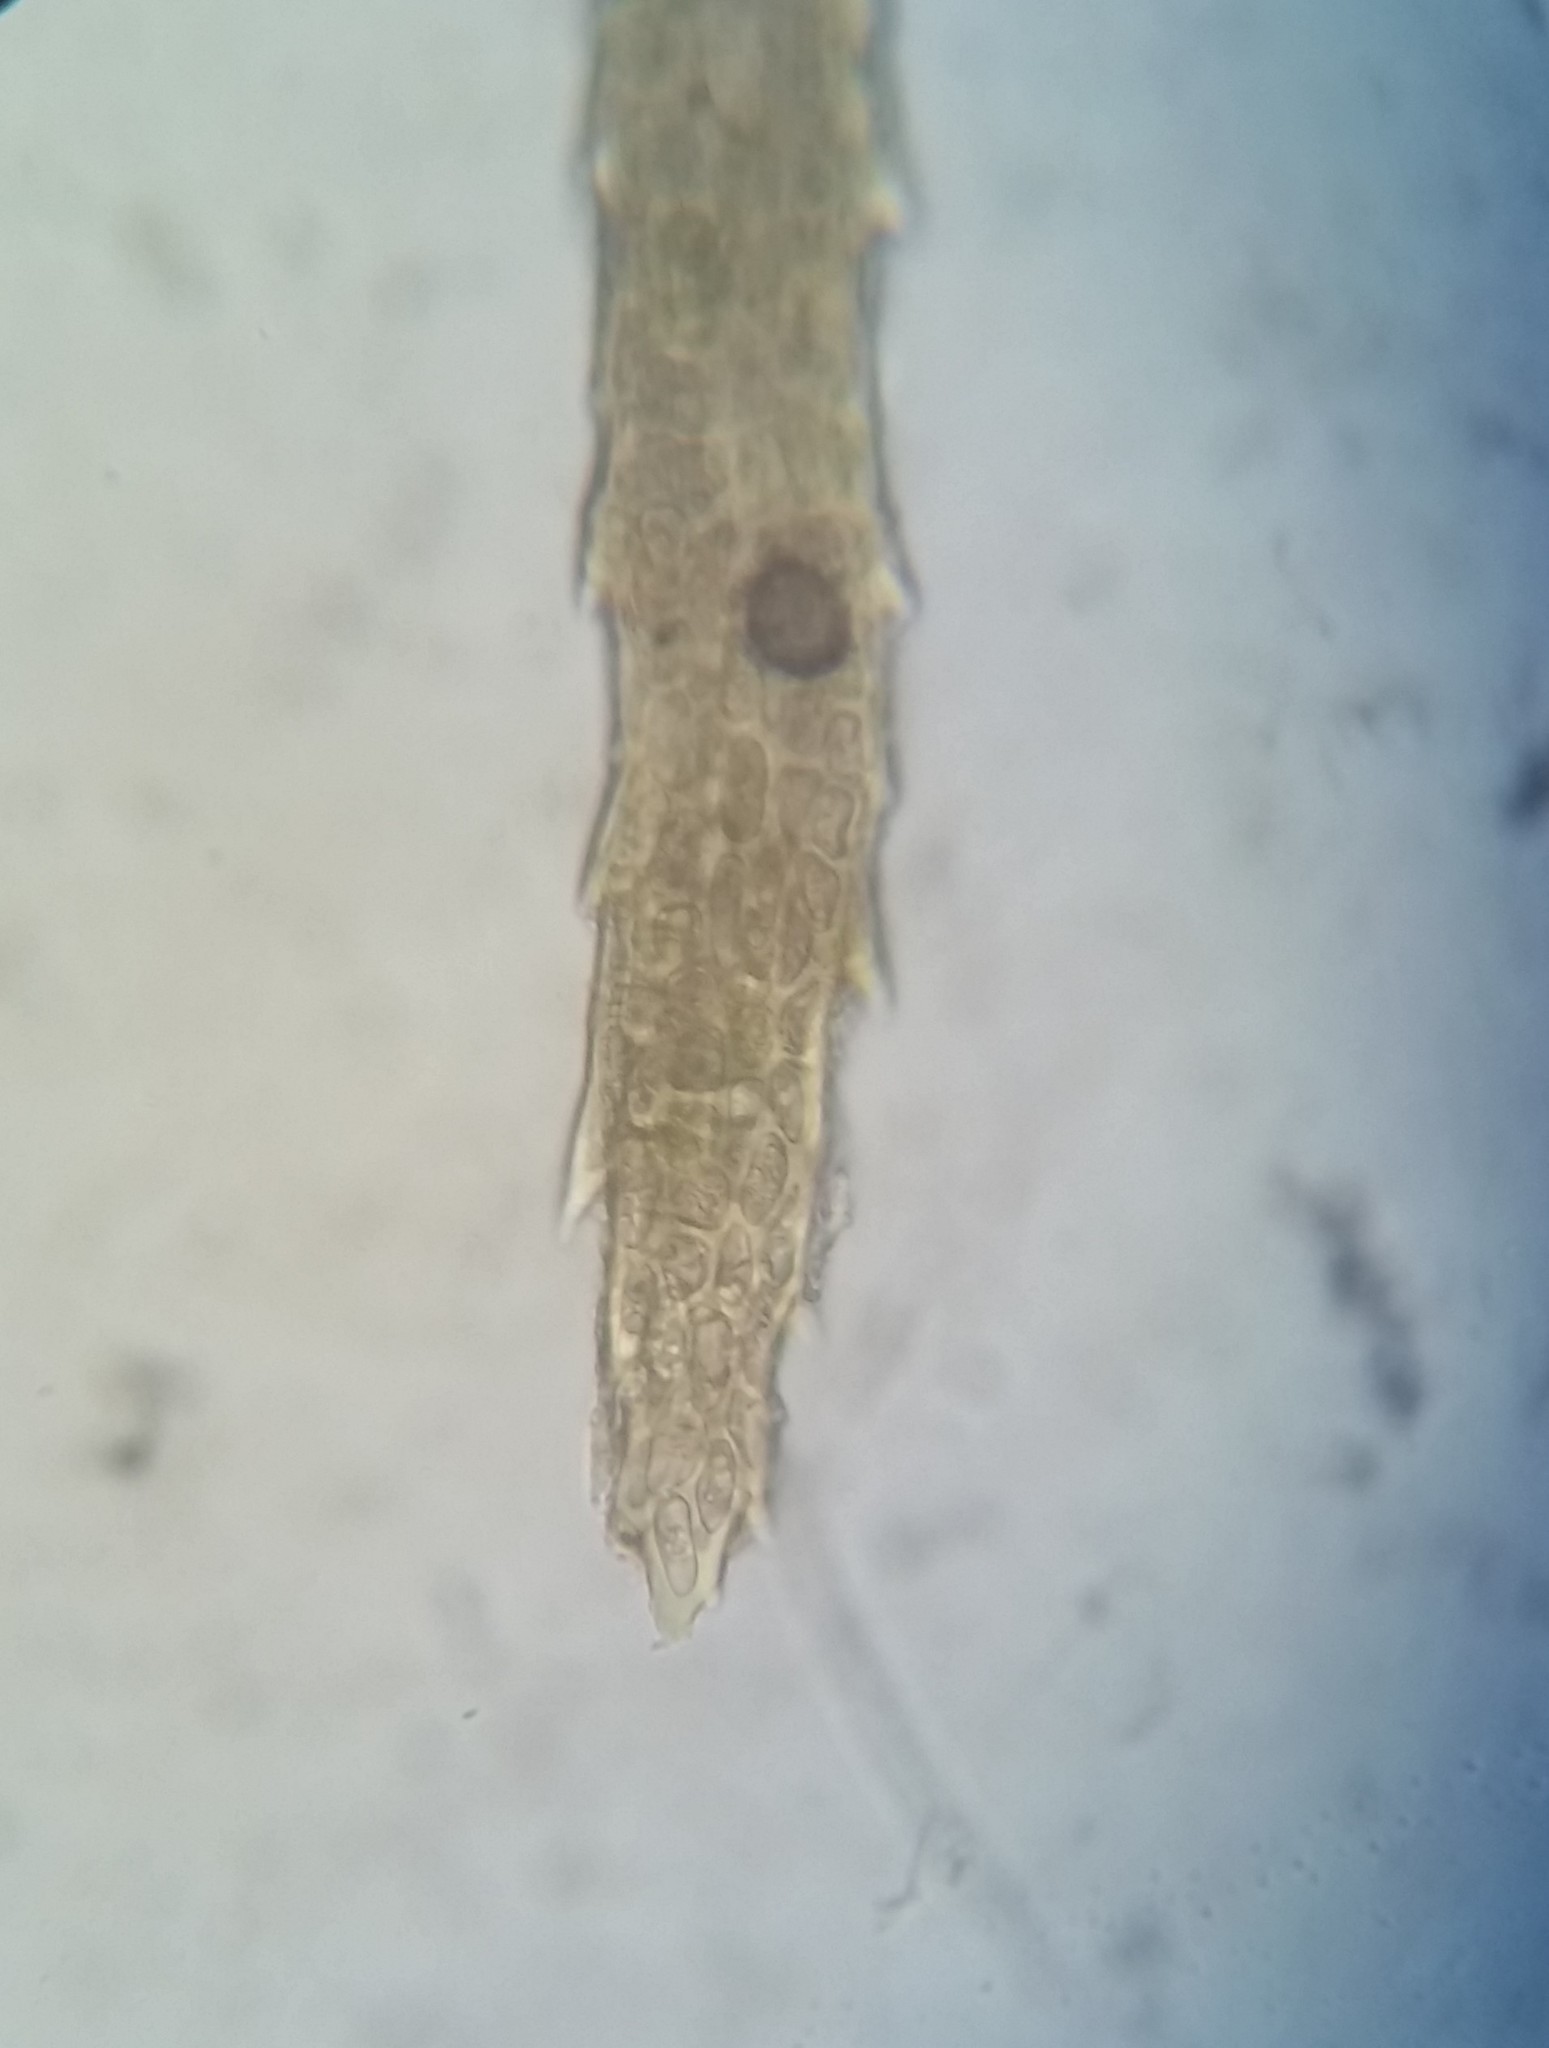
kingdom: Plantae
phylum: Bryophyta
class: Bryopsida
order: Dicranales
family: Dicranaceae
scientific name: Dicranaceae
